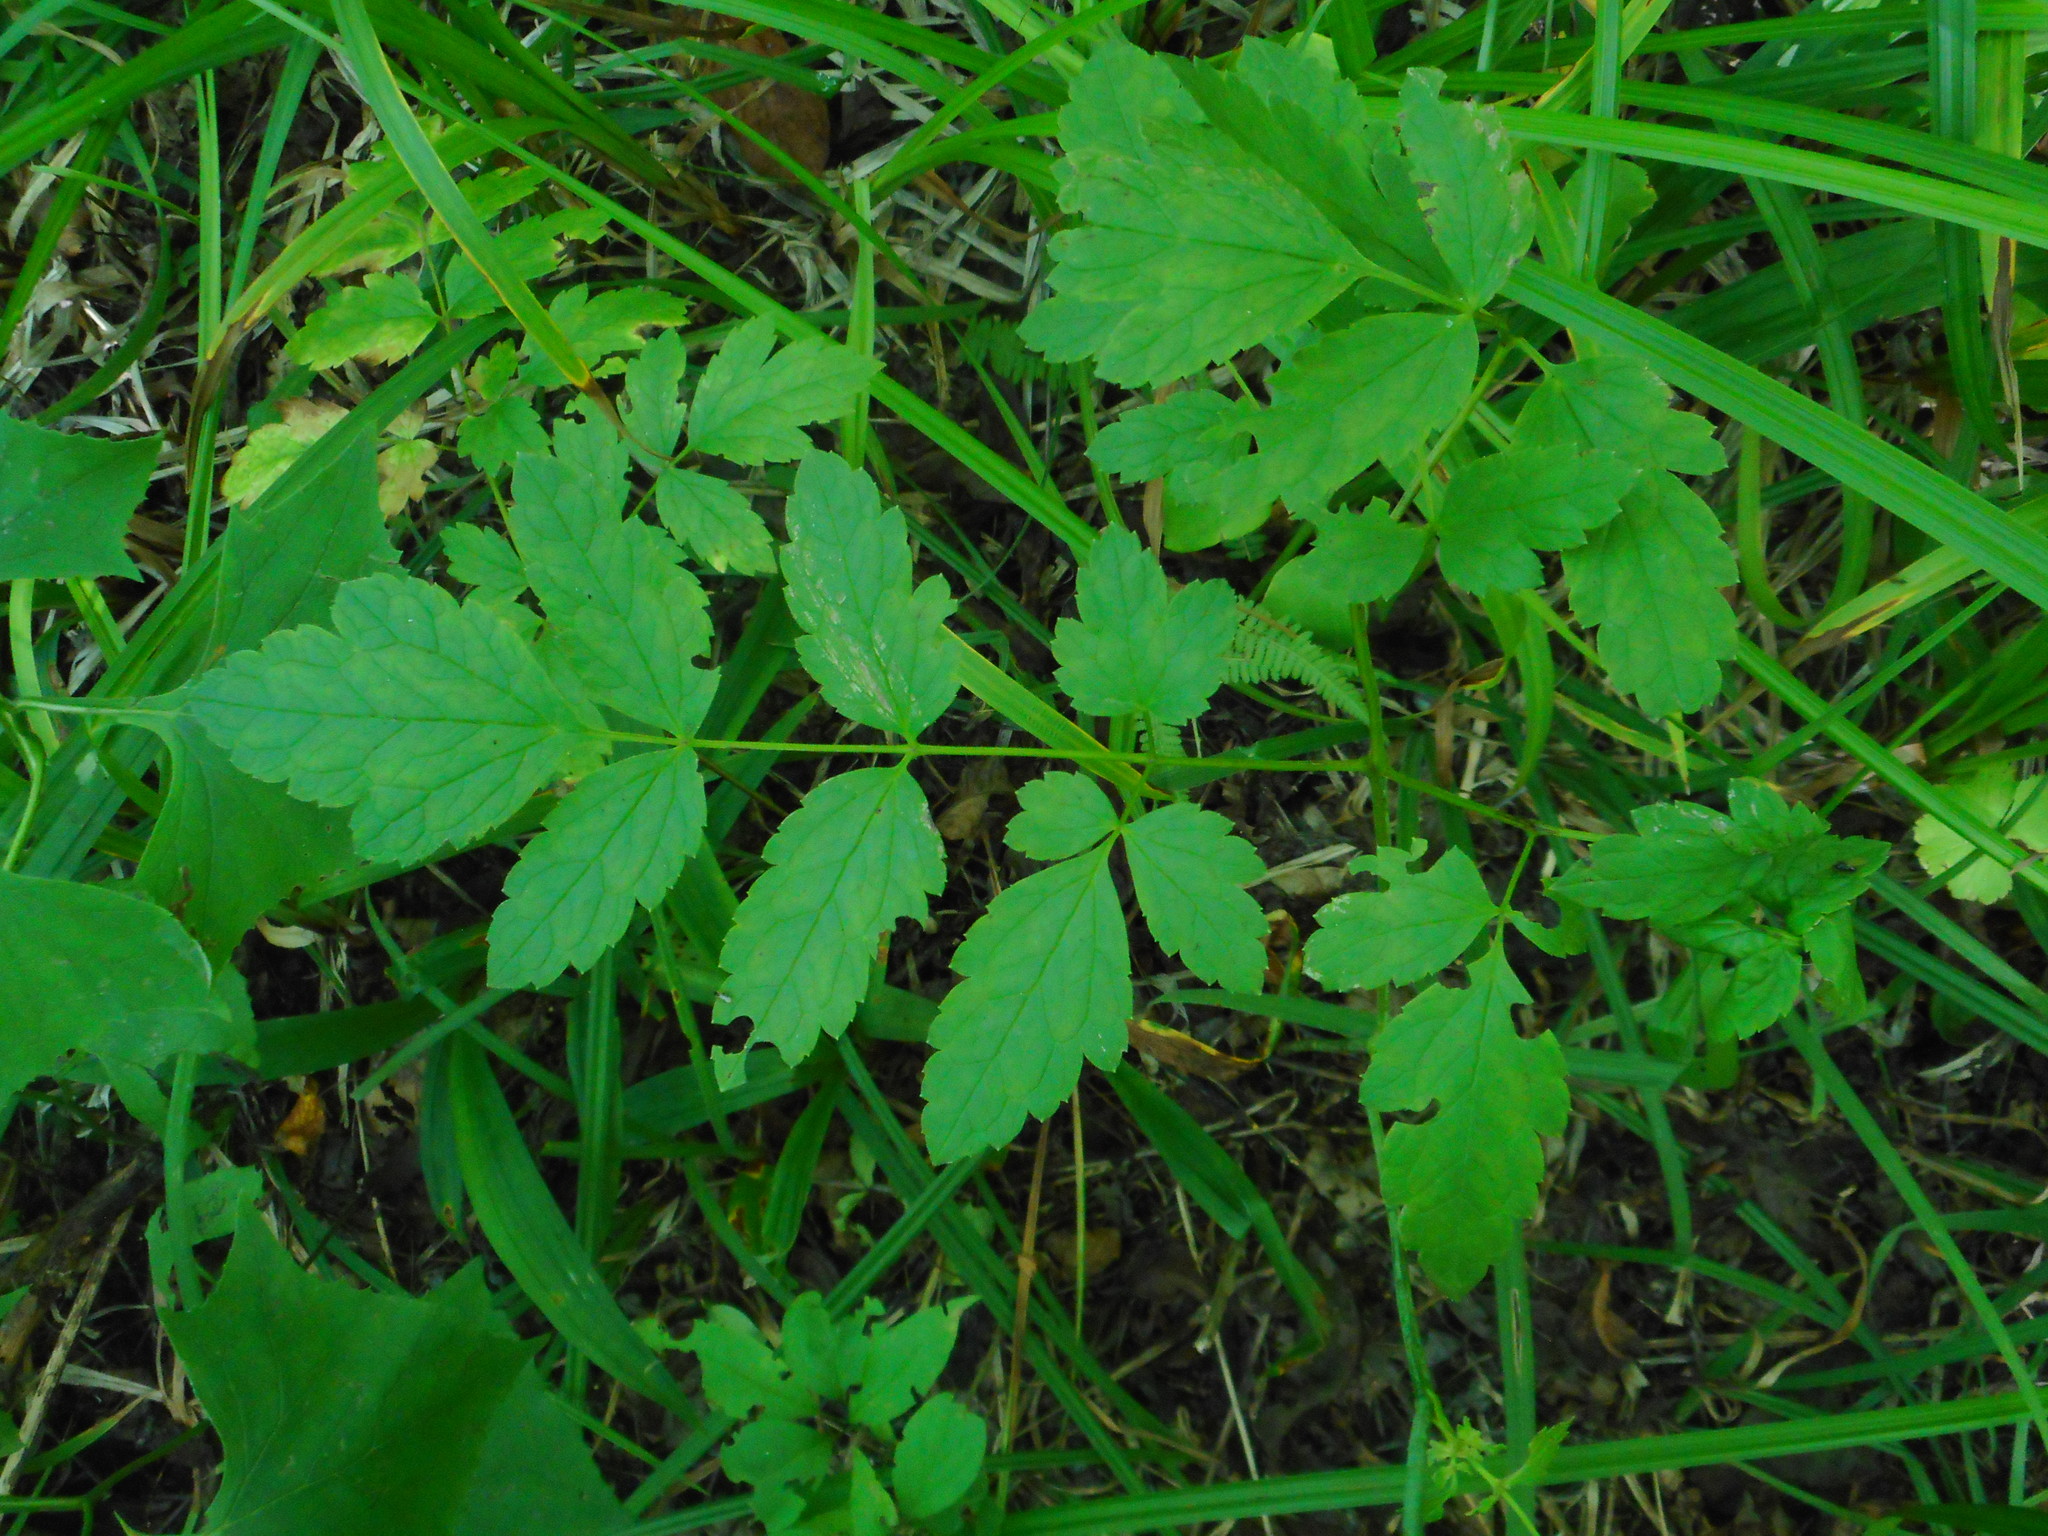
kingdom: Plantae
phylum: Tracheophyta
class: Magnoliopsida
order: Ranunculales
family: Ranunculaceae
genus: Actaea
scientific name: Actaea simplex
